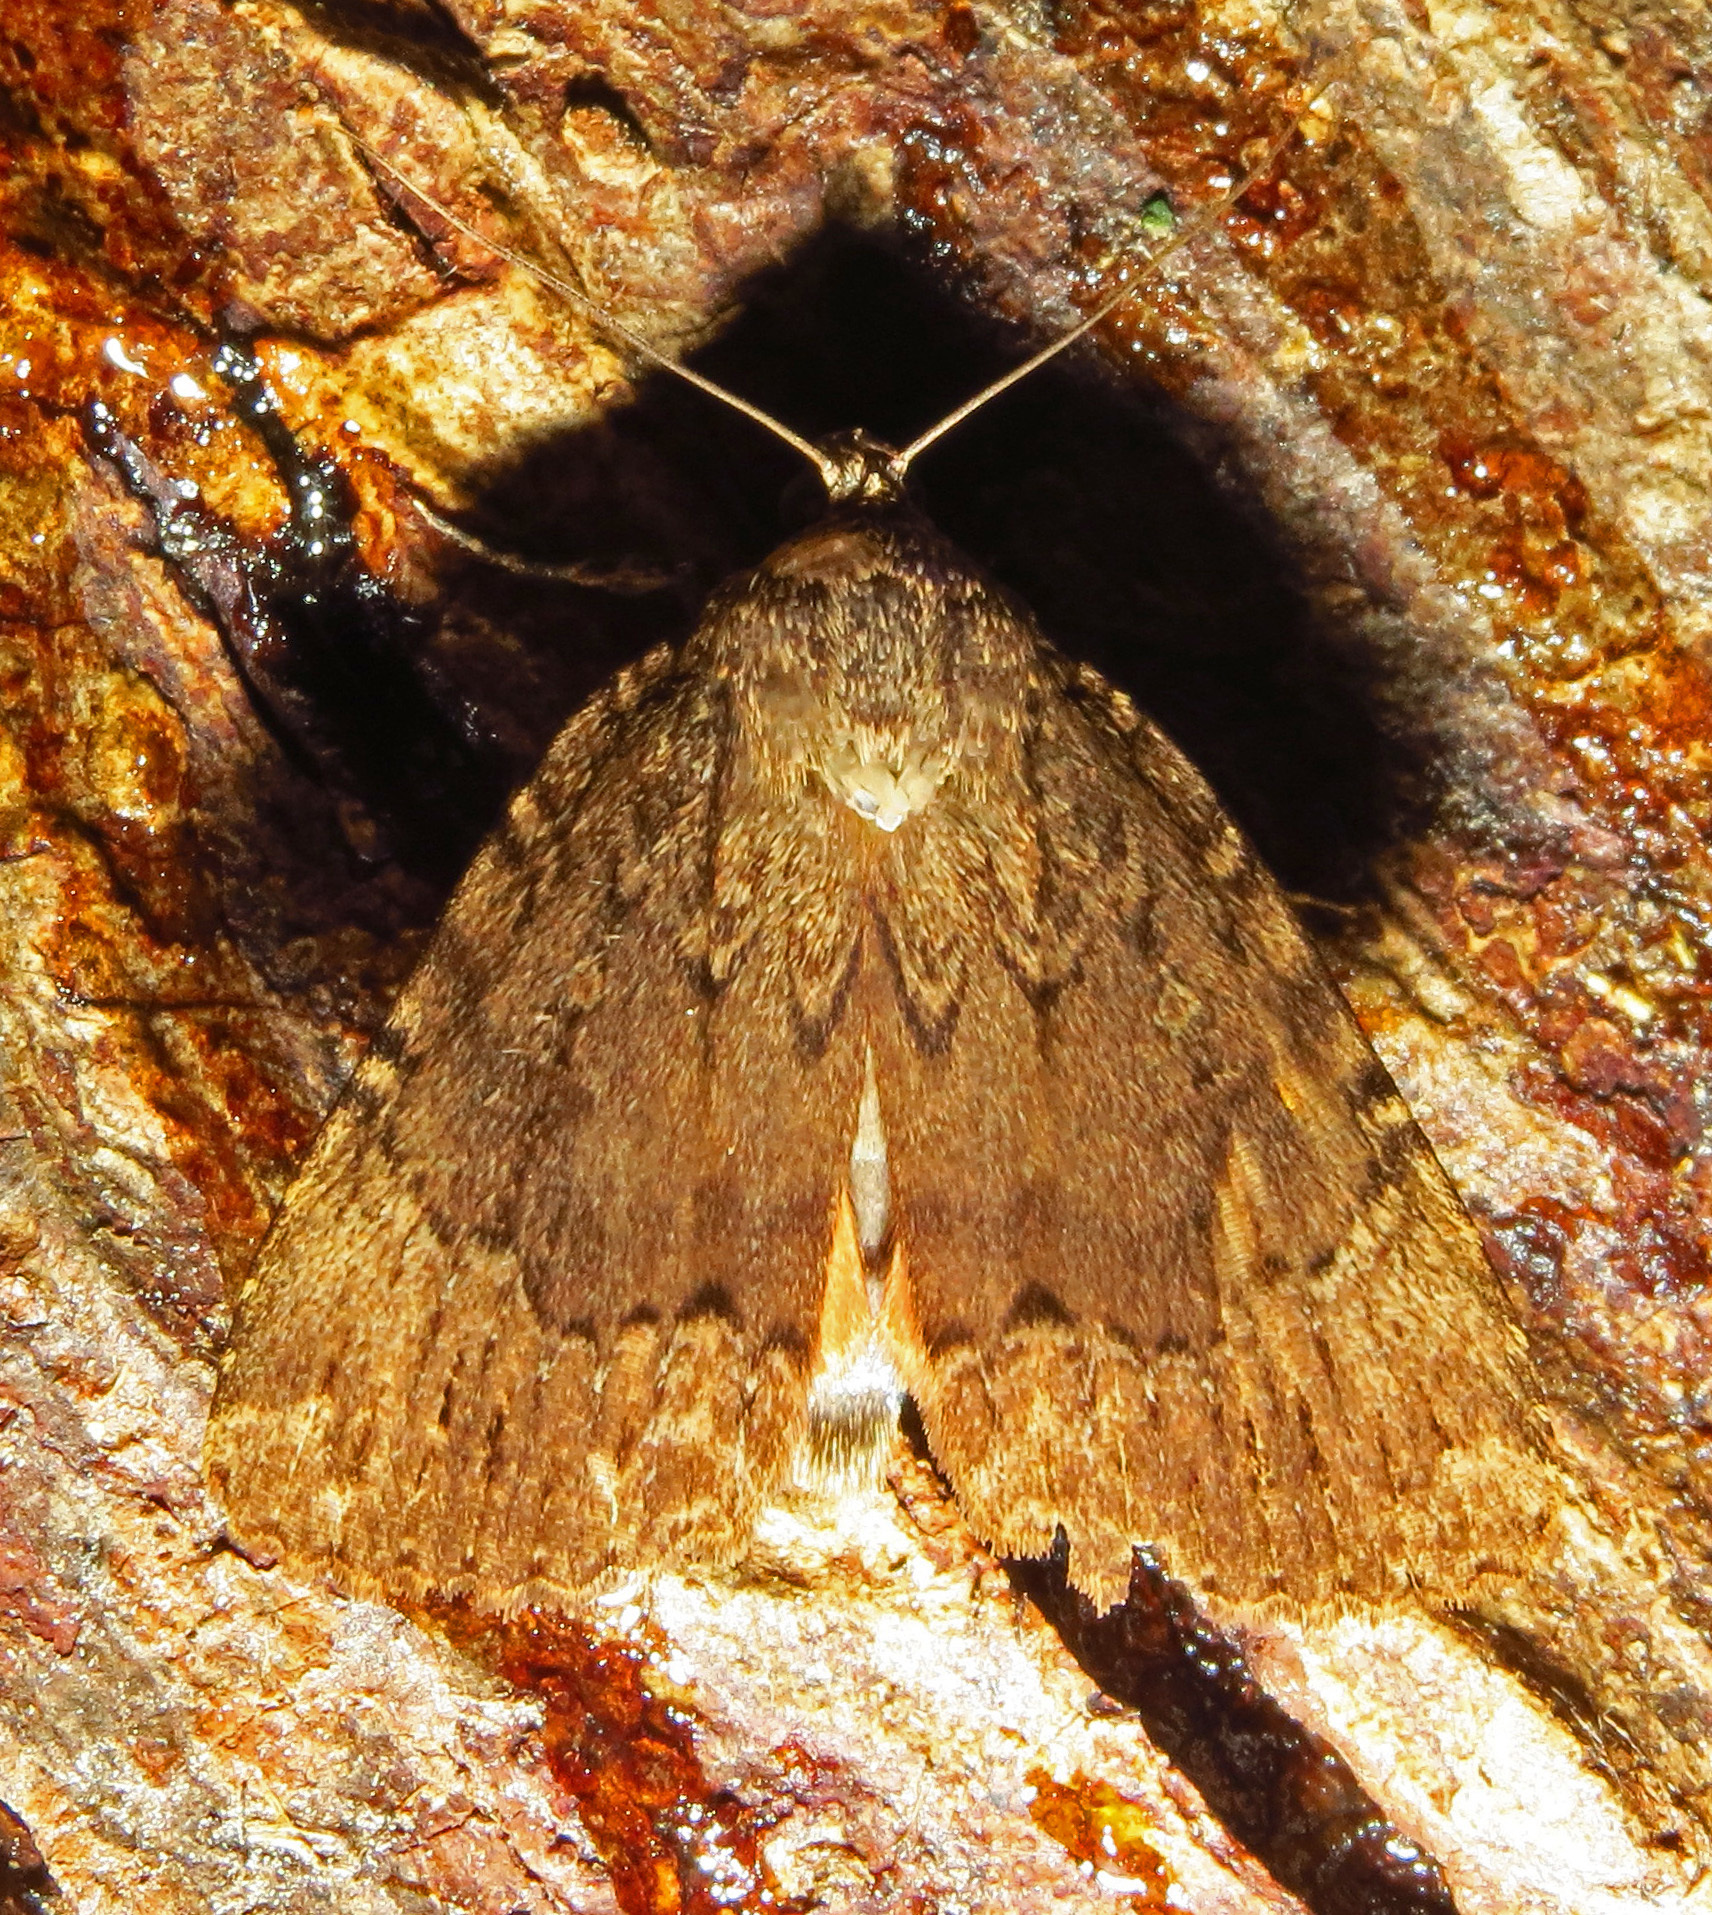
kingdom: Animalia
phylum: Arthropoda
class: Insecta
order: Lepidoptera
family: Noctuidae
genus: Amphipyra
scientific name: Amphipyra pyramidoides
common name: American copper underwing
